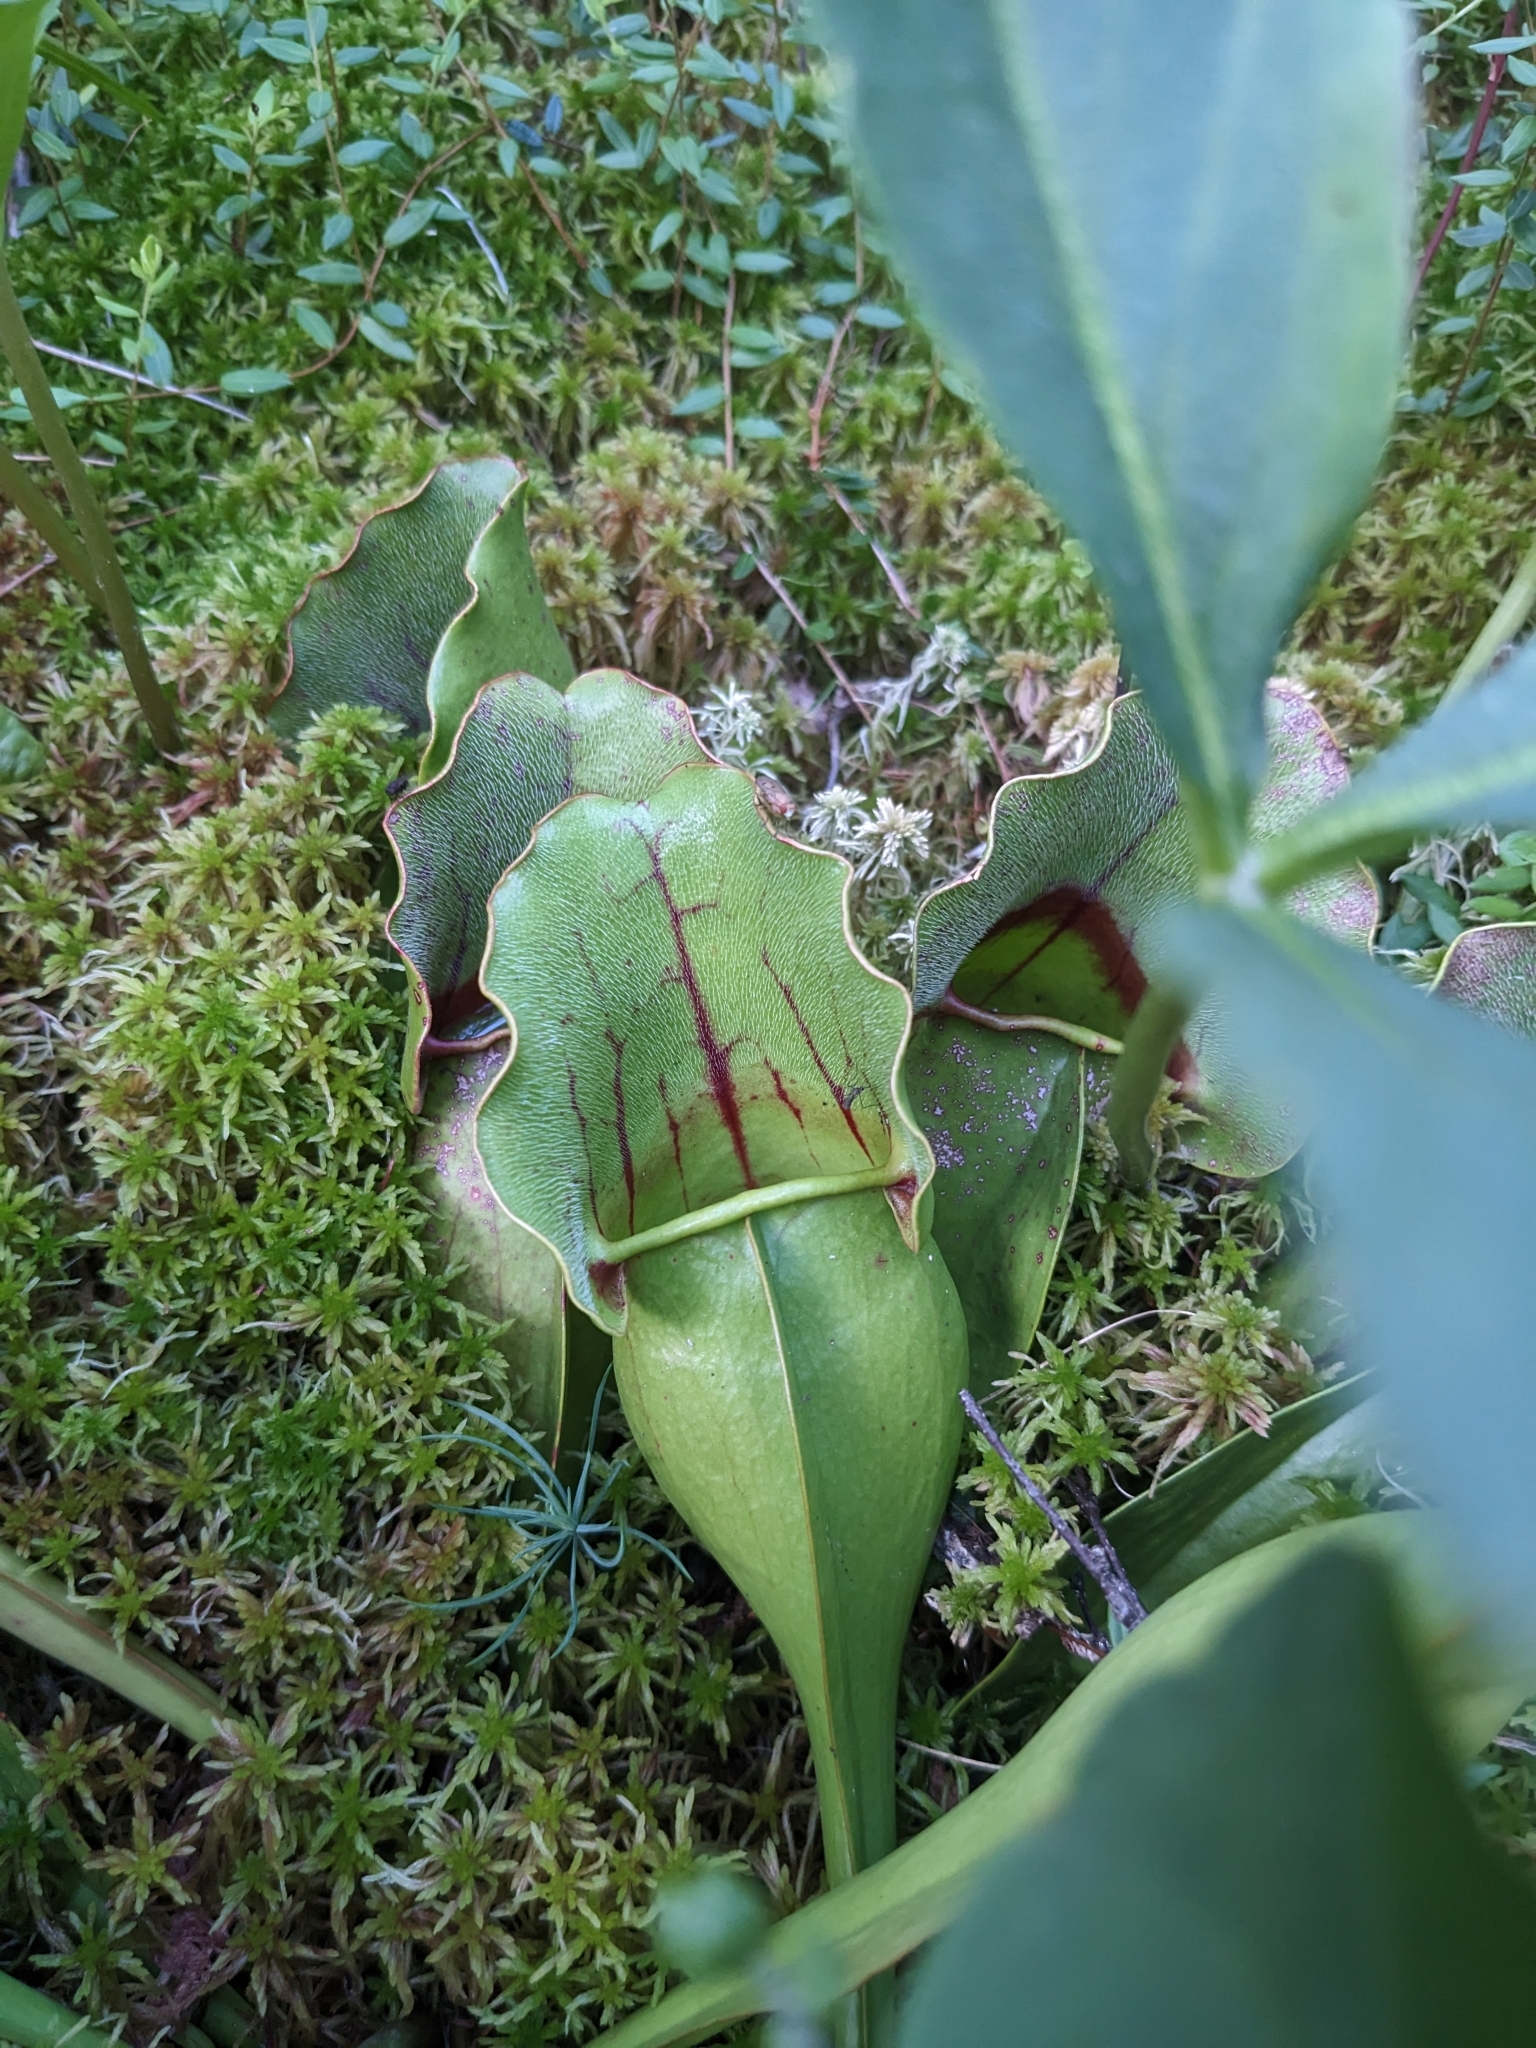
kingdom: Plantae
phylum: Tracheophyta
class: Magnoliopsida
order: Ericales
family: Sarraceniaceae
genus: Sarracenia
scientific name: Sarracenia purpurea
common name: Pitcherplant
